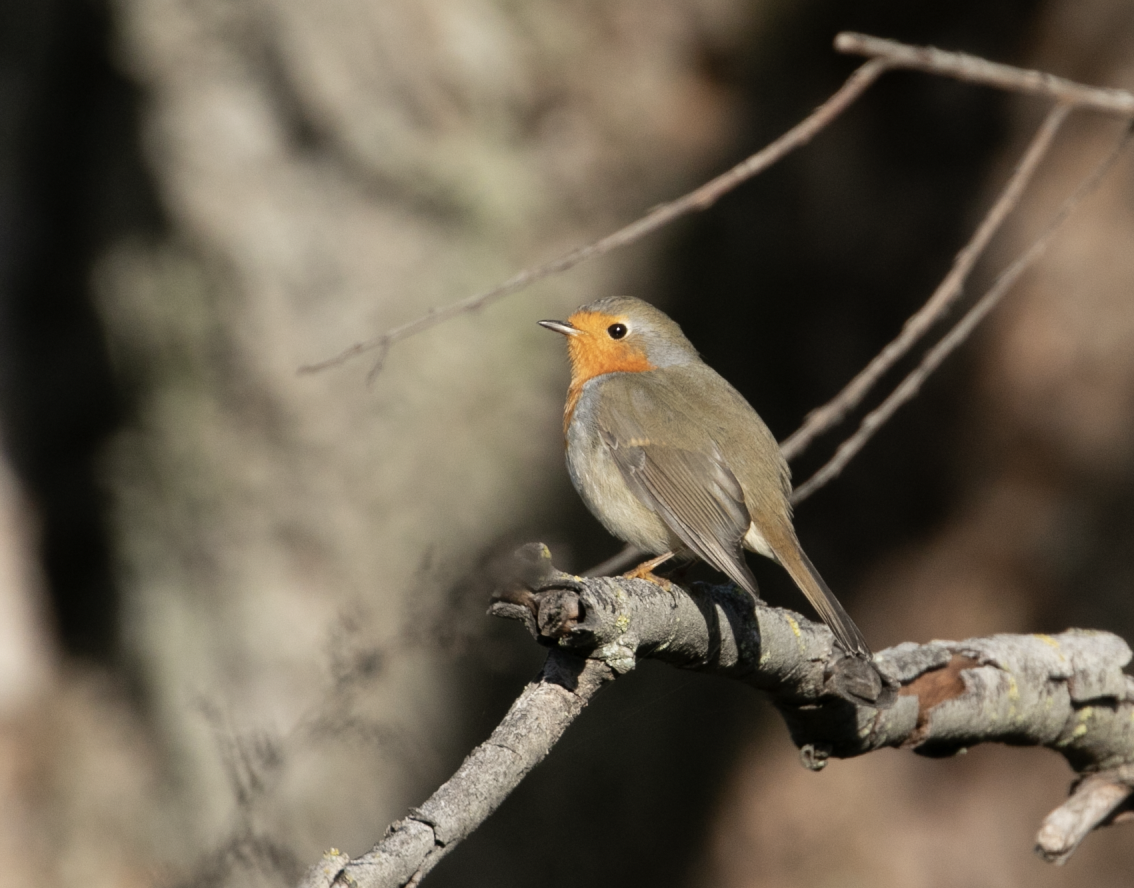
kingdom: Animalia
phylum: Chordata
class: Aves
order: Passeriformes
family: Muscicapidae
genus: Erithacus
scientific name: Erithacus rubecula
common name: European robin
